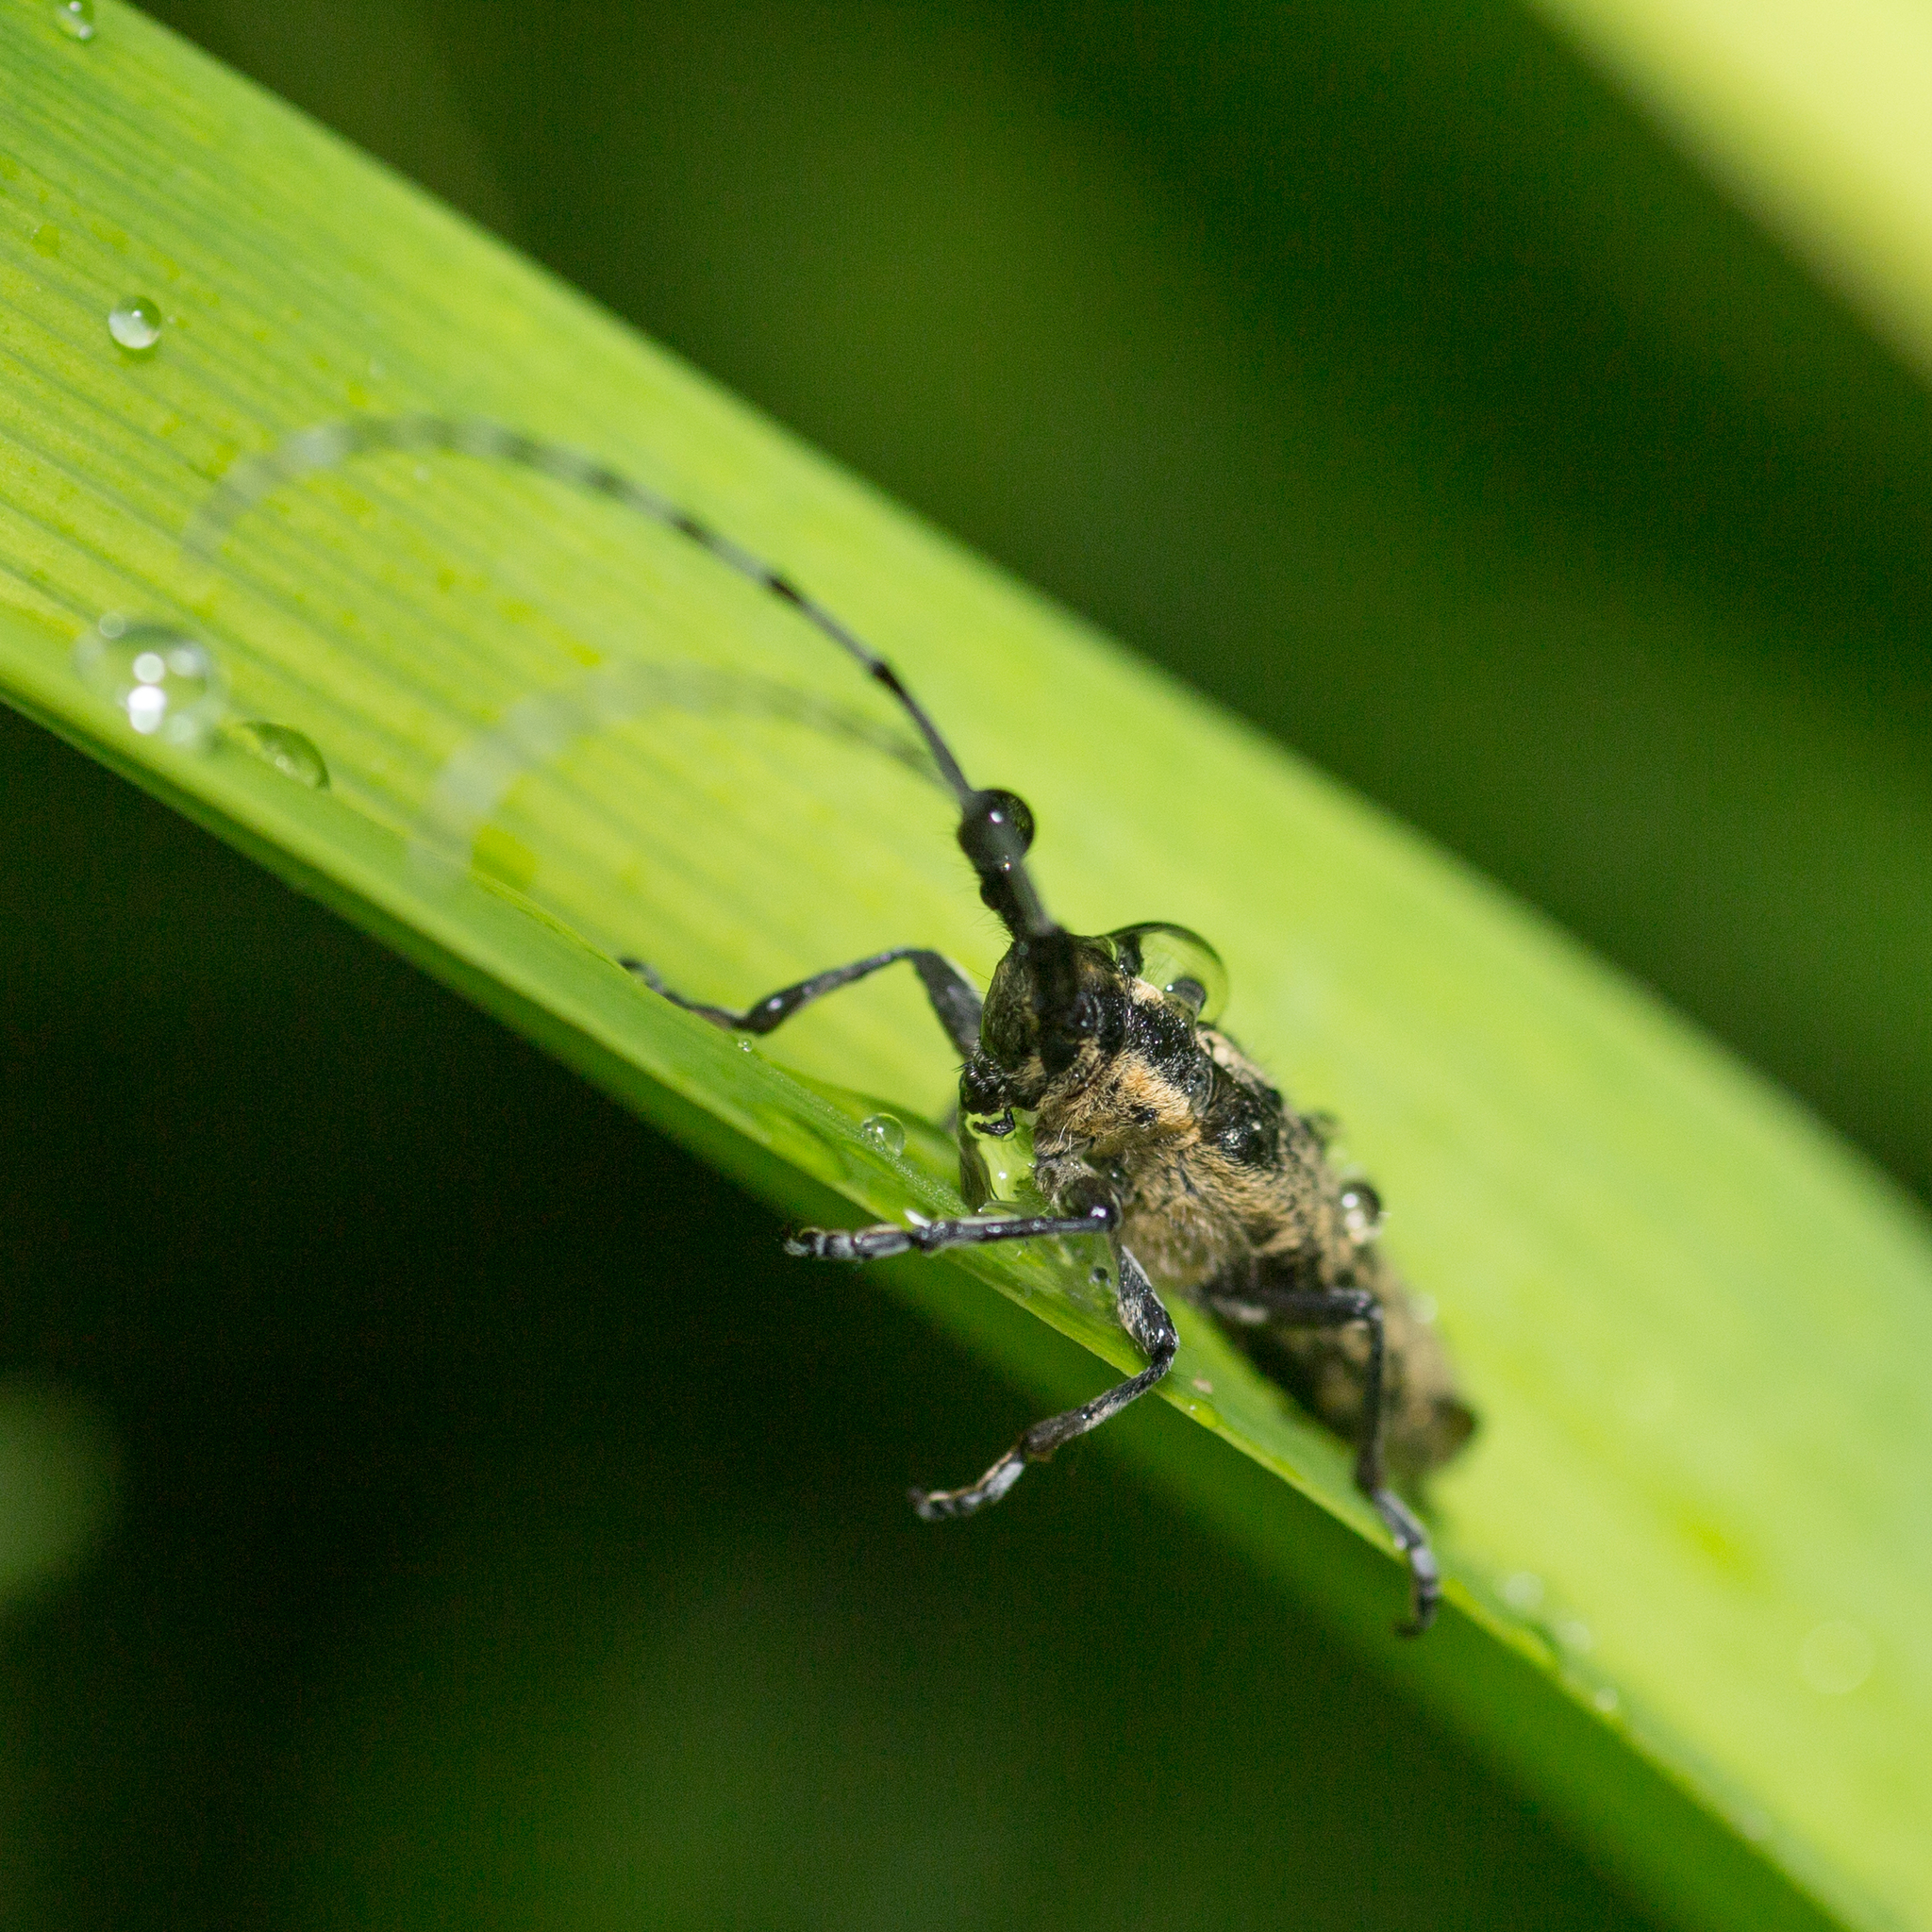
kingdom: Animalia
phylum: Arthropoda
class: Insecta
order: Coleoptera
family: Cerambycidae
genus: Agapanthia
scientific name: Agapanthia villosoviridescens
